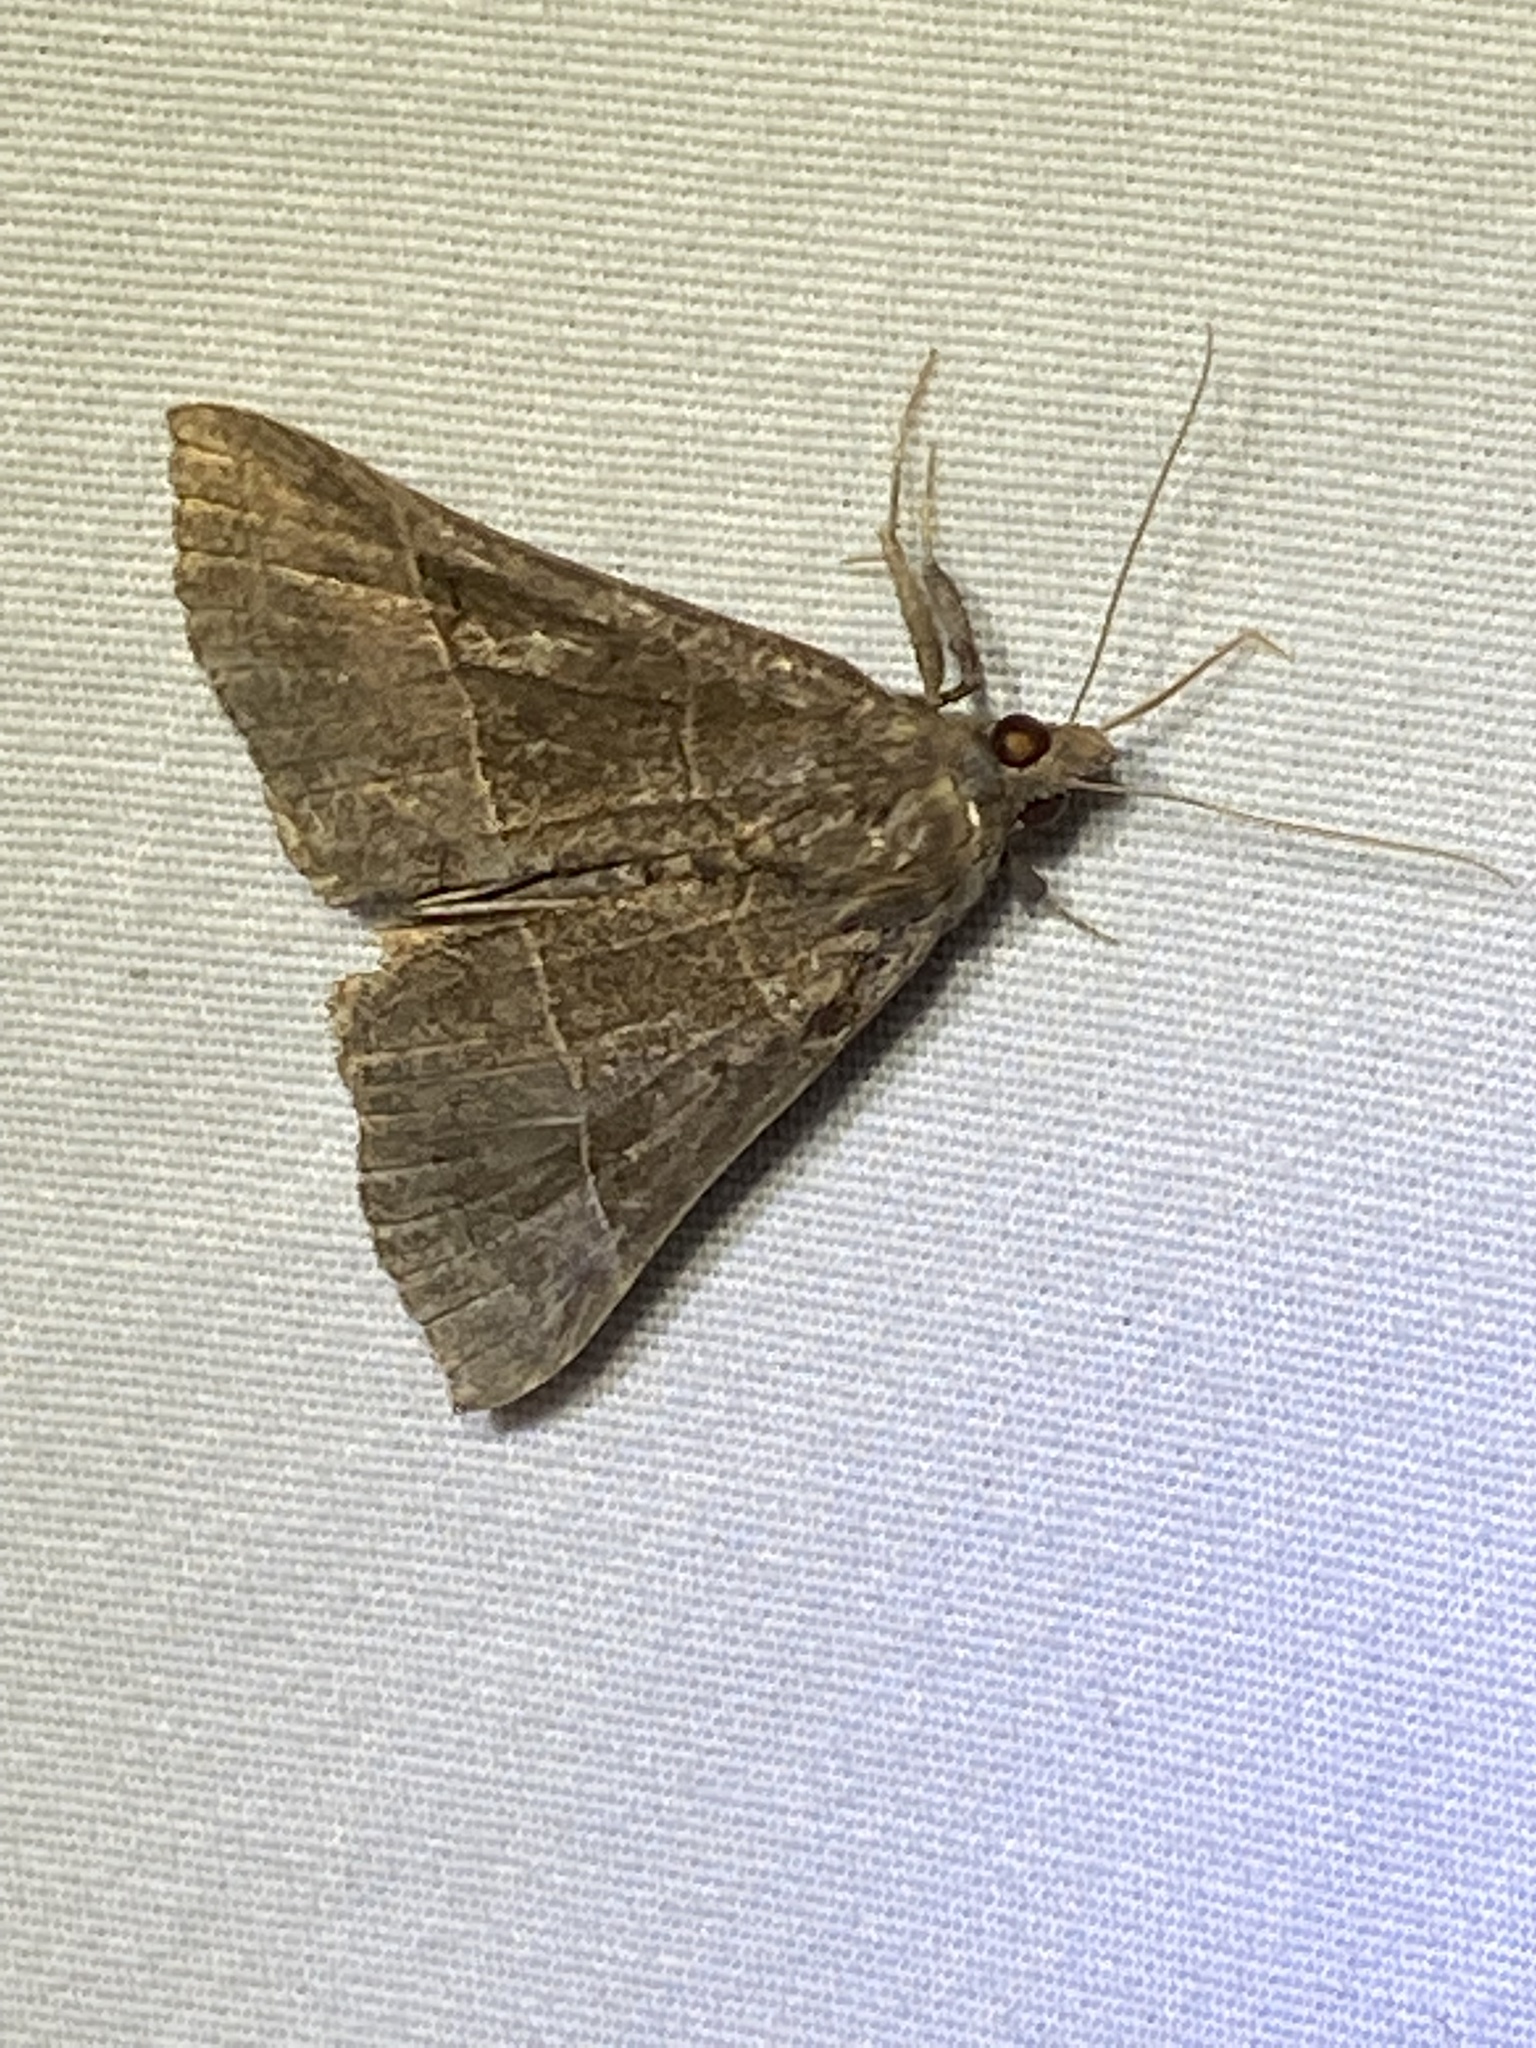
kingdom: Animalia
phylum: Arthropoda
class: Insecta
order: Lepidoptera
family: Erebidae
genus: Hypena
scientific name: Hypena deceptalis
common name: Deceptive snout
